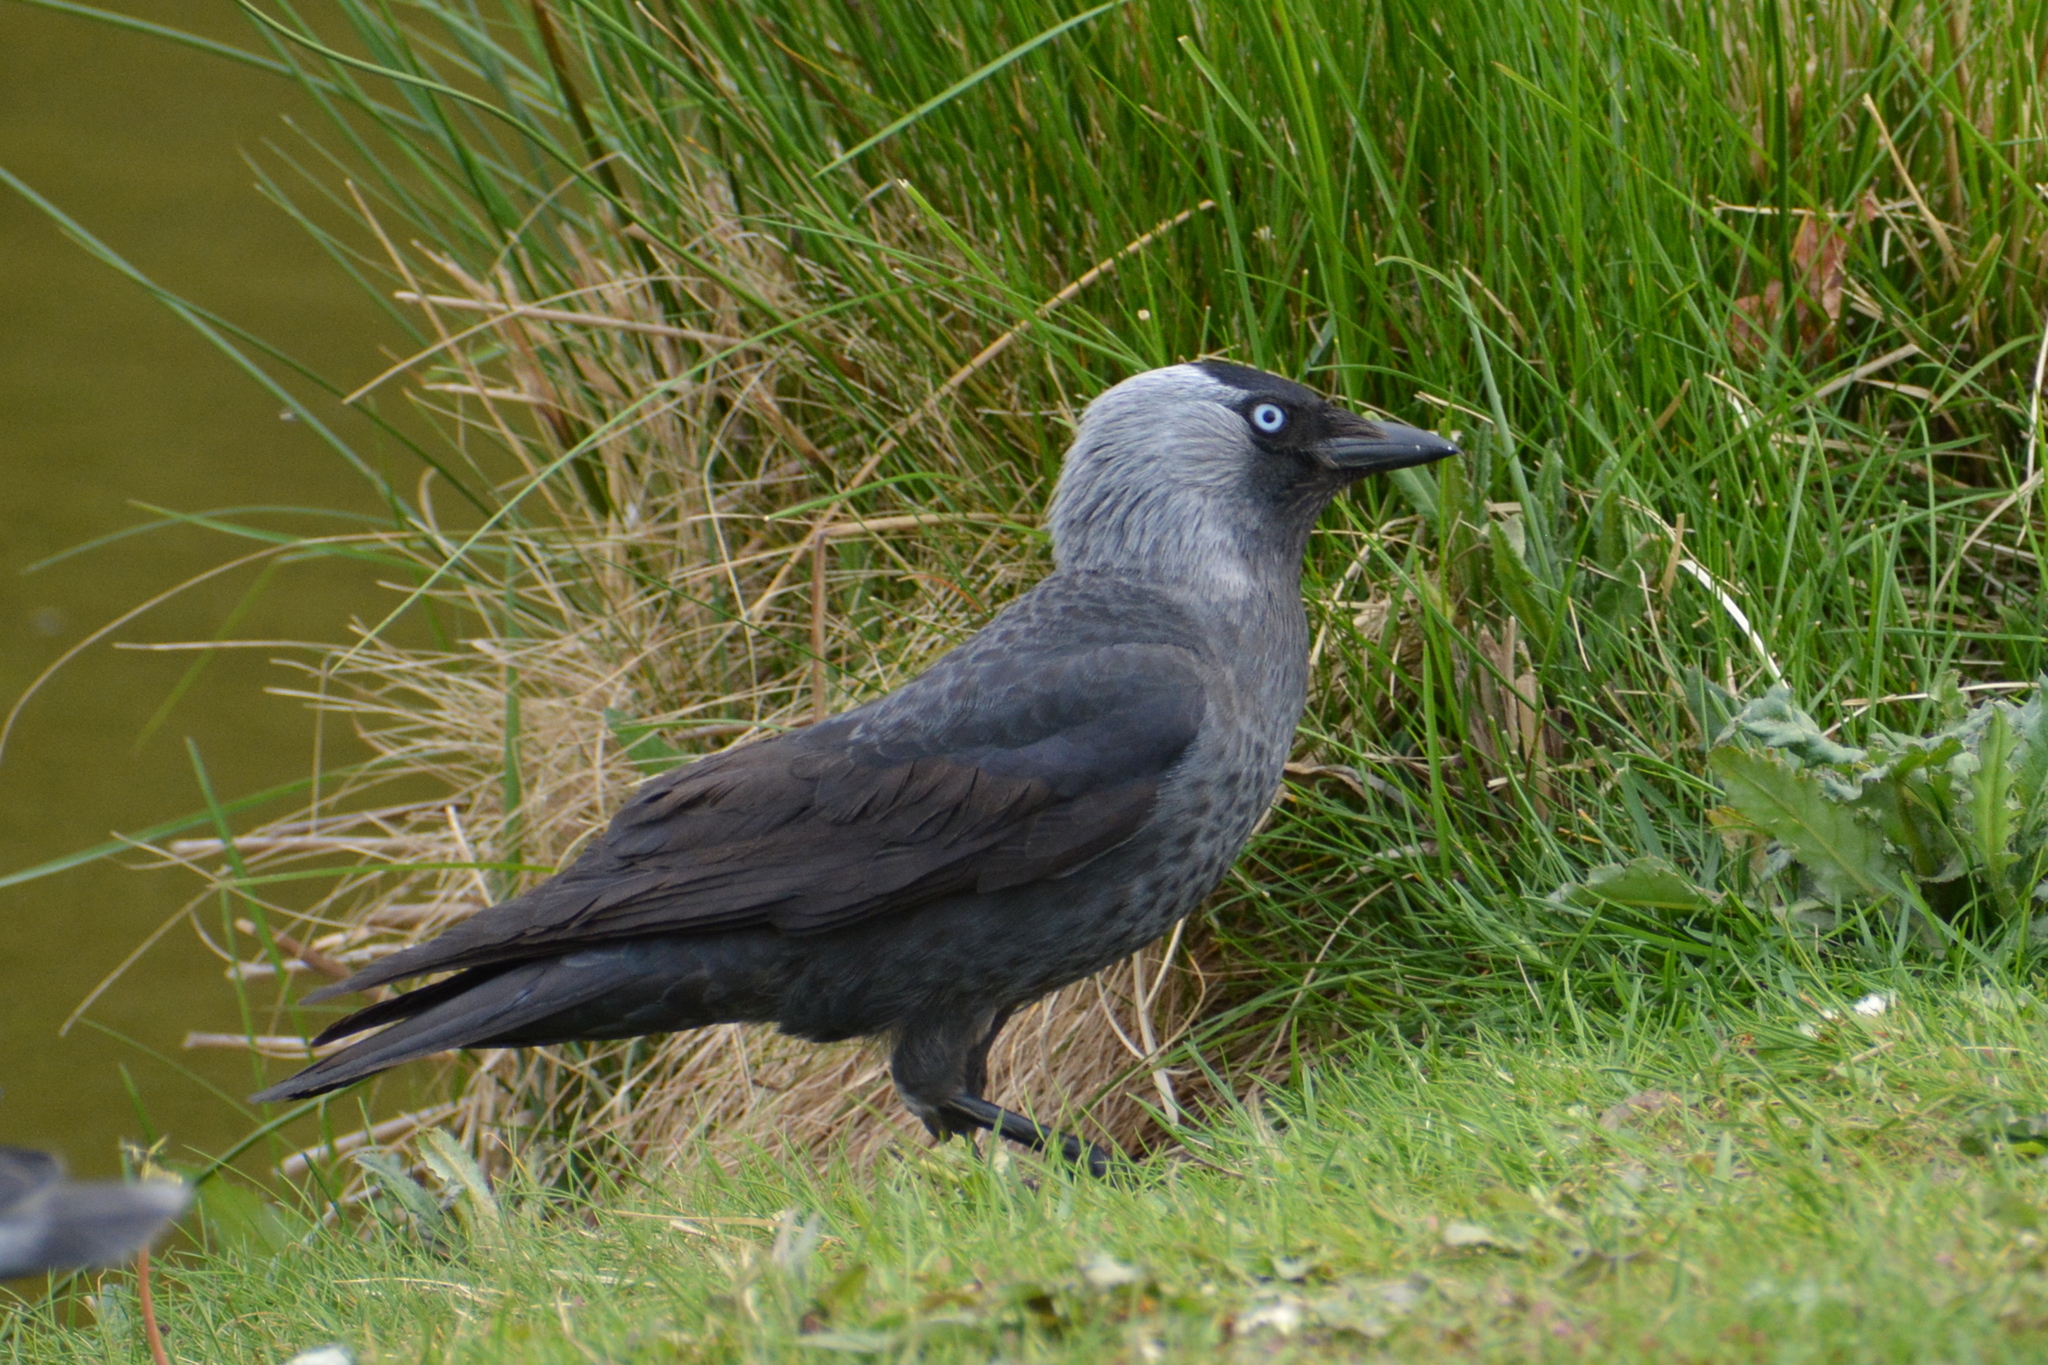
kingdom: Animalia
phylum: Chordata
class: Aves
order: Passeriformes
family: Corvidae
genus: Coloeus
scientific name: Coloeus monedula
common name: Western jackdaw
